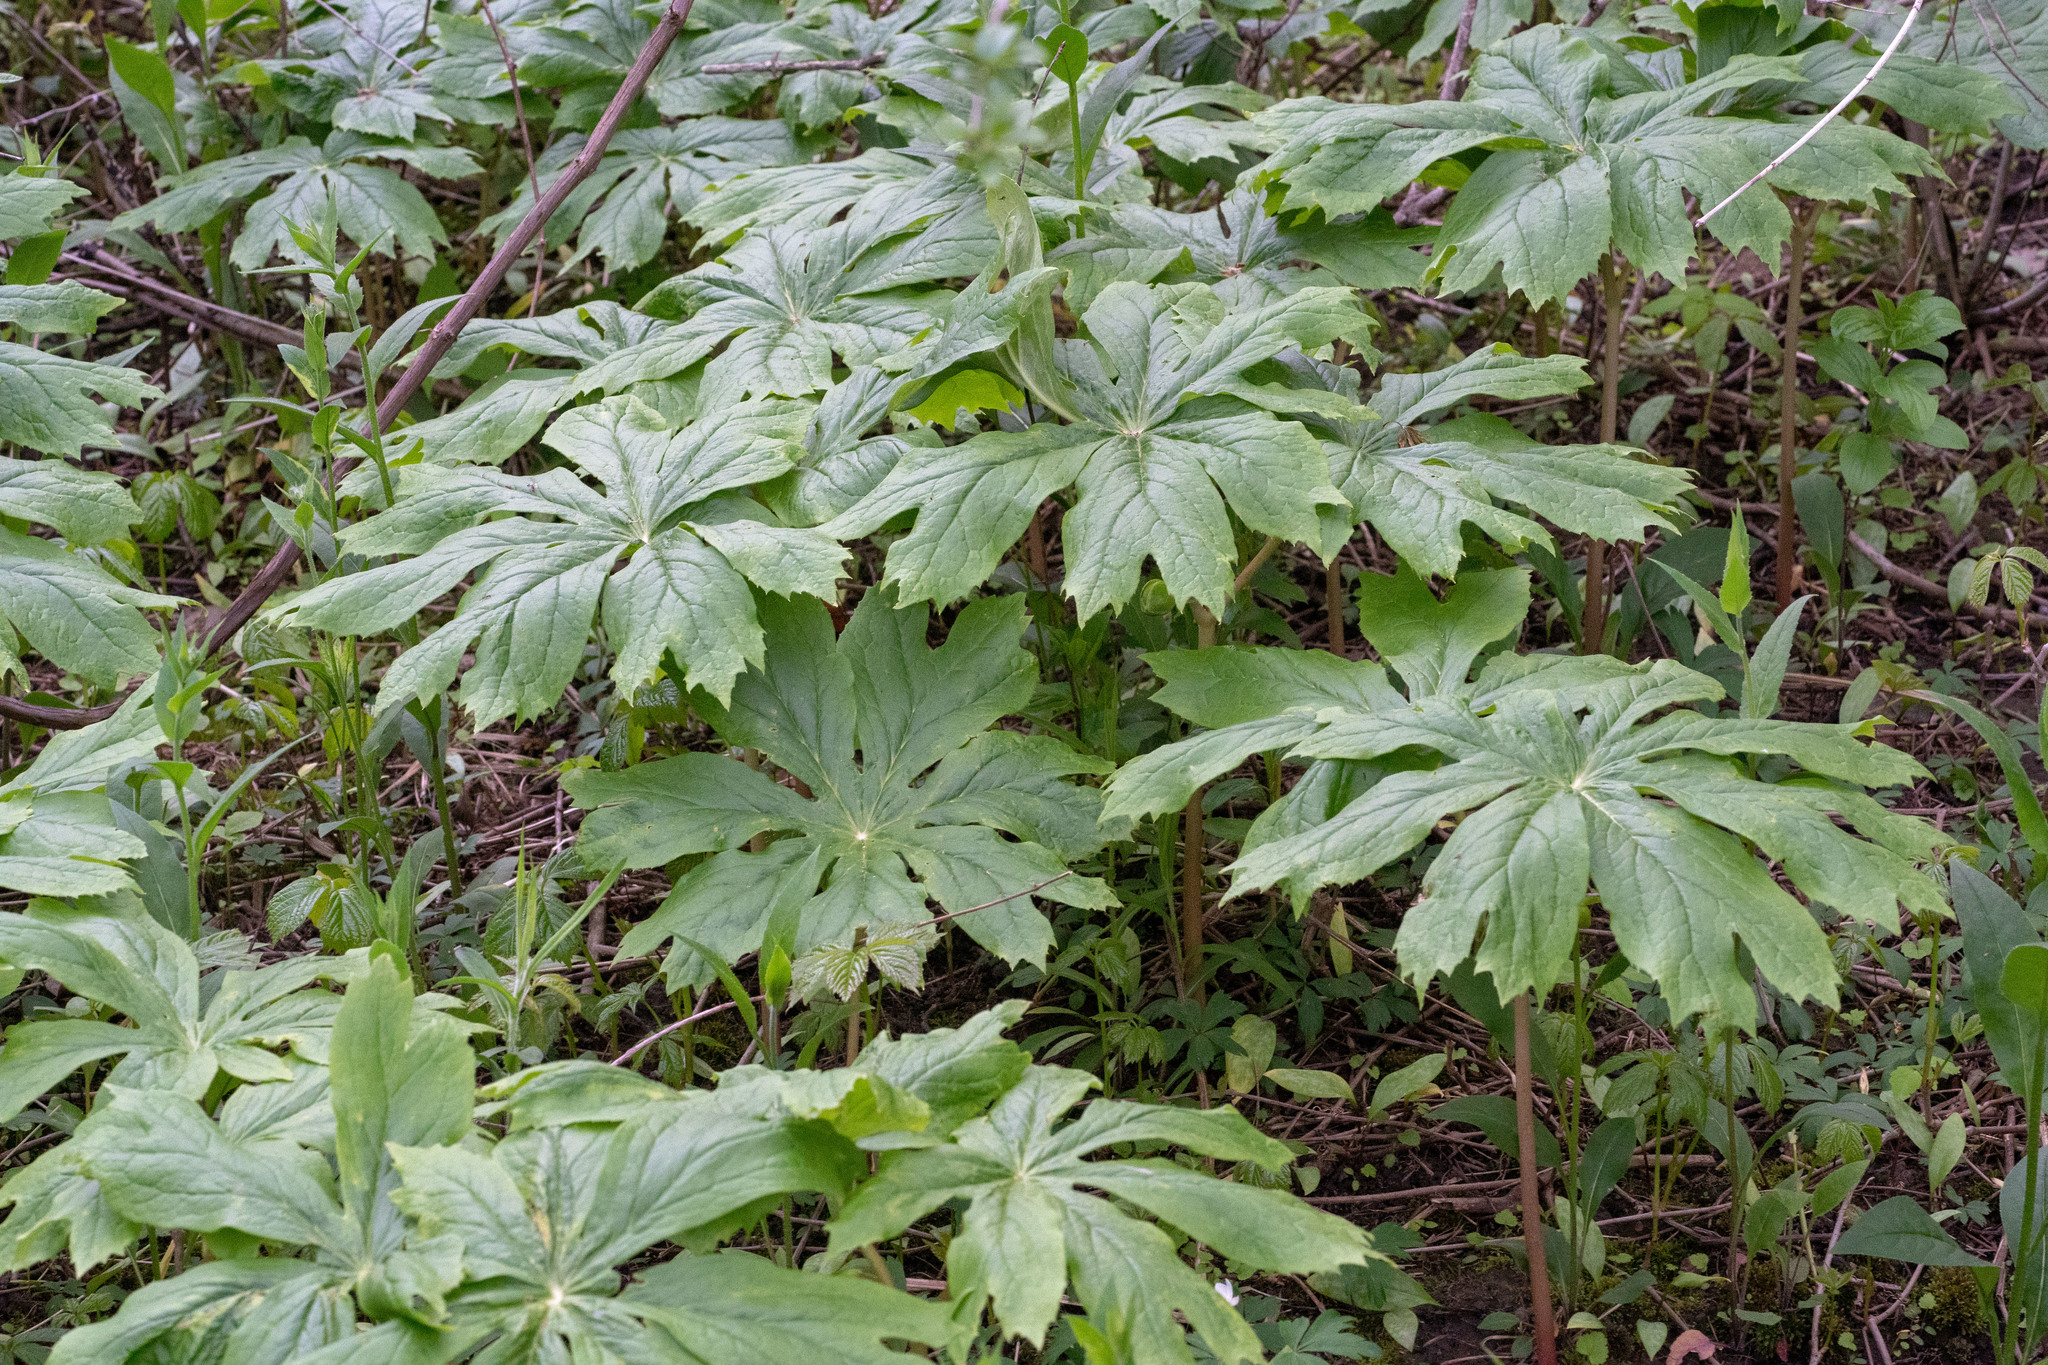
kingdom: Plantae
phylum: Tracheophyta
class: Magnoliopsida
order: Ranunculales
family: Berberidaceae
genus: Podophyllum
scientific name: Podophyllum peltatum
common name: Wild mandrake
